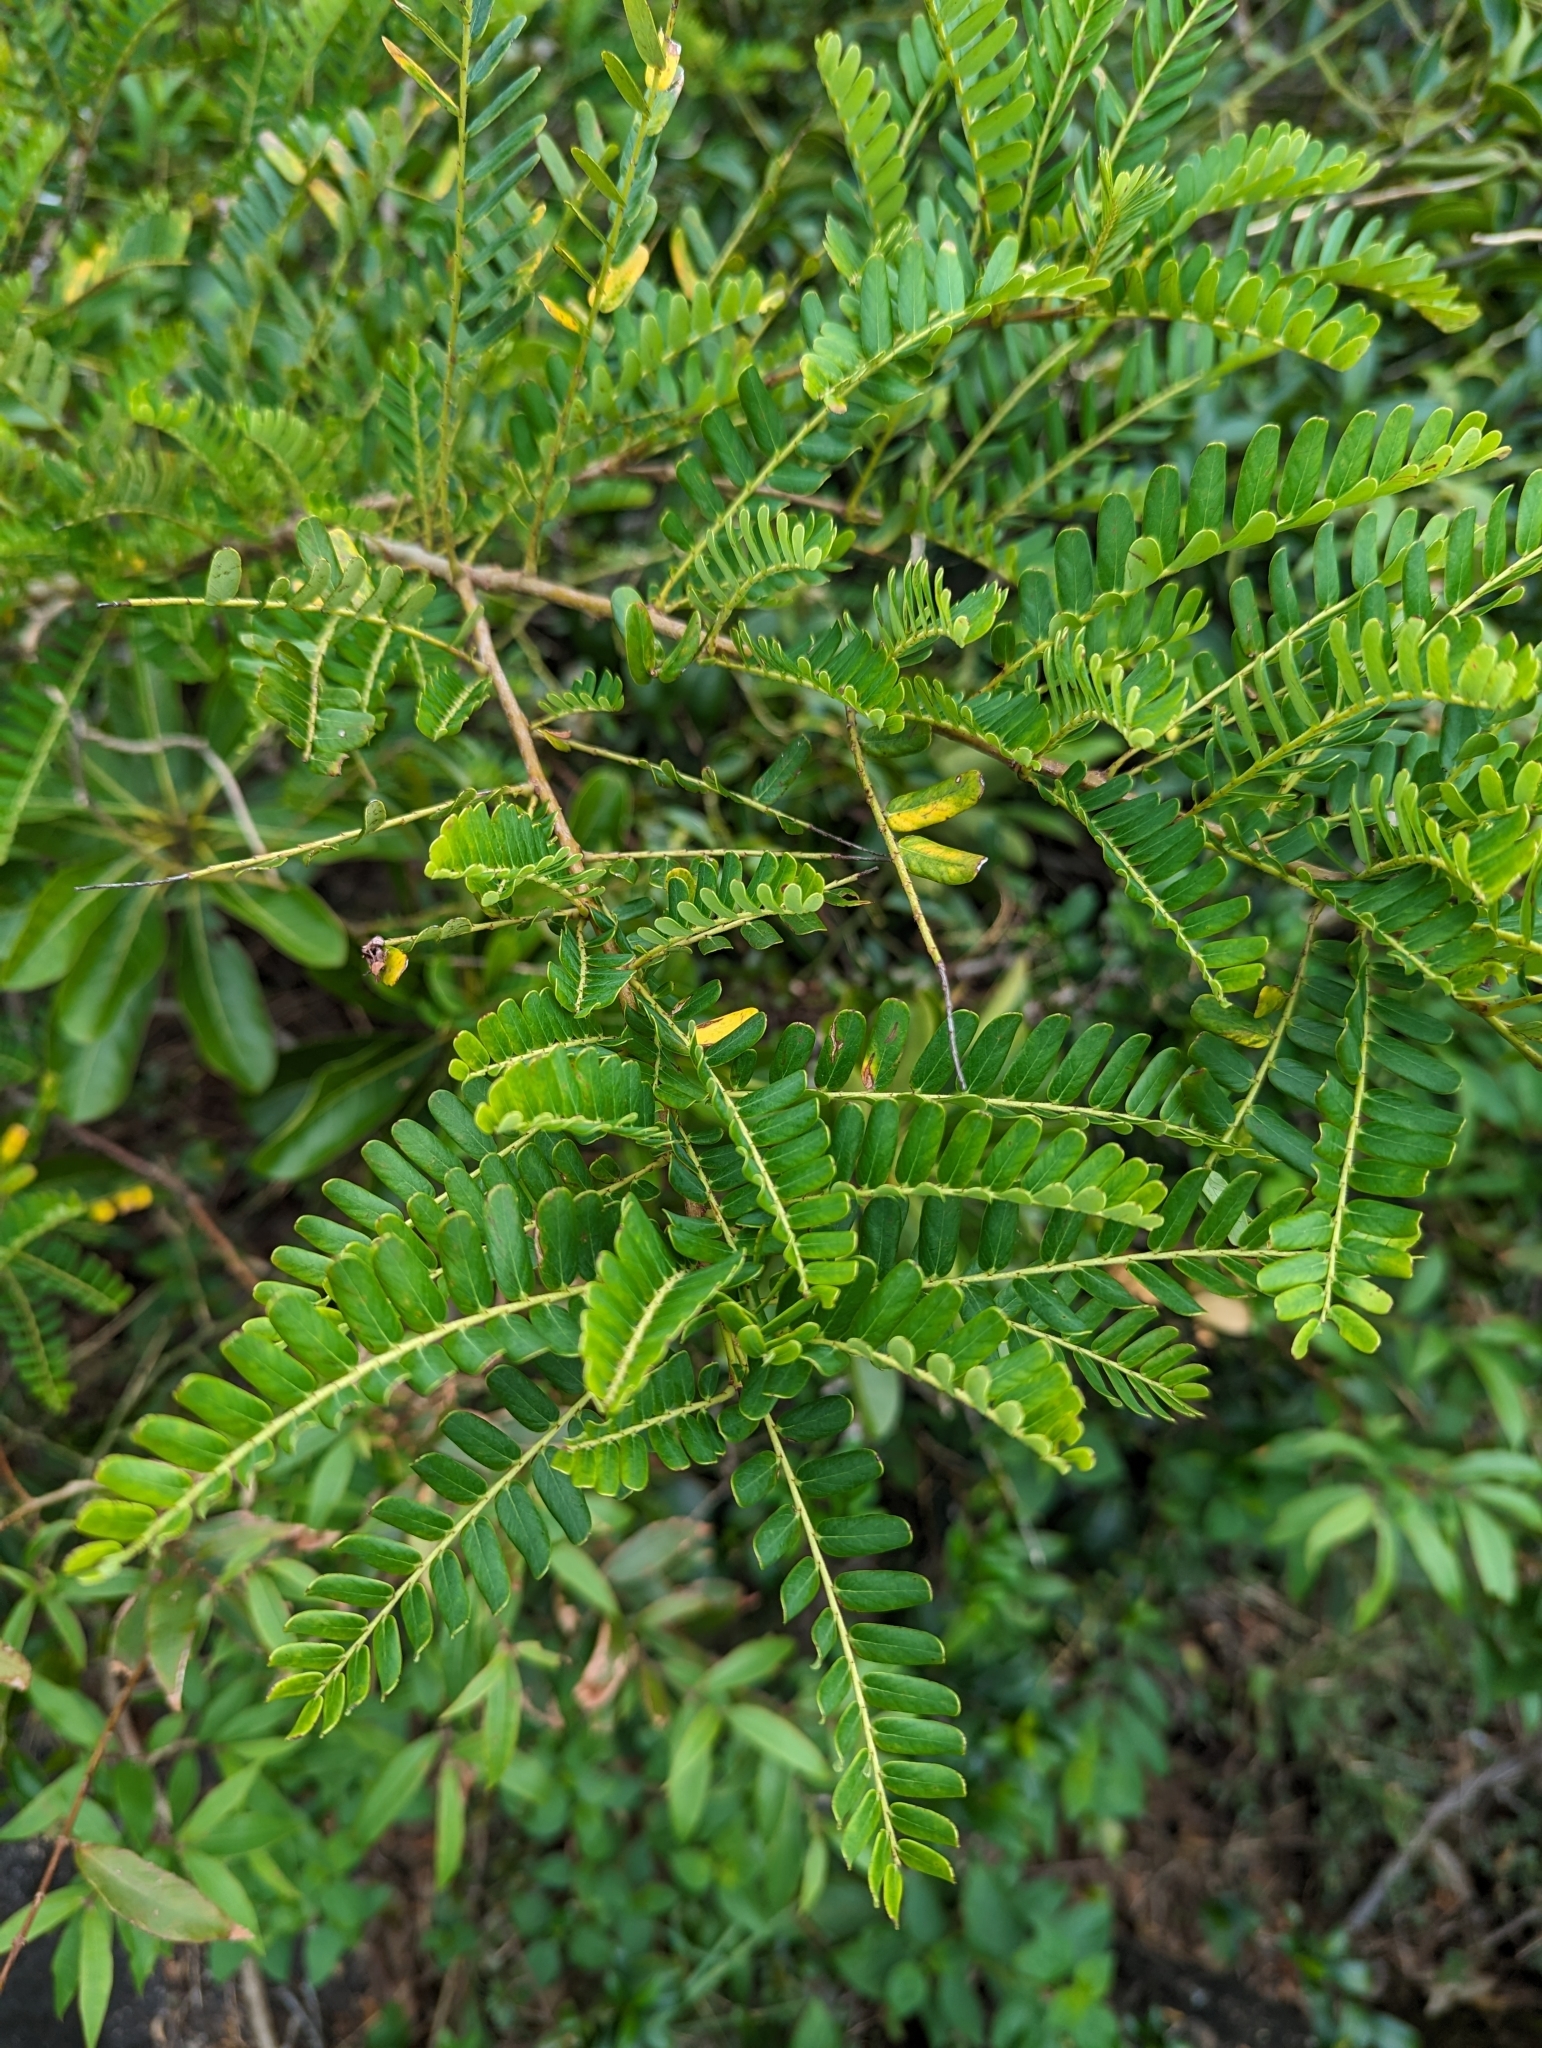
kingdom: Plantae
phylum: Tracheophyta
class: Magnoliopsida
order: Malpighiales
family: Phyllanthaceae
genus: Phyllanthus
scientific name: Phyllanthus emblica
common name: Indian gooseberry
